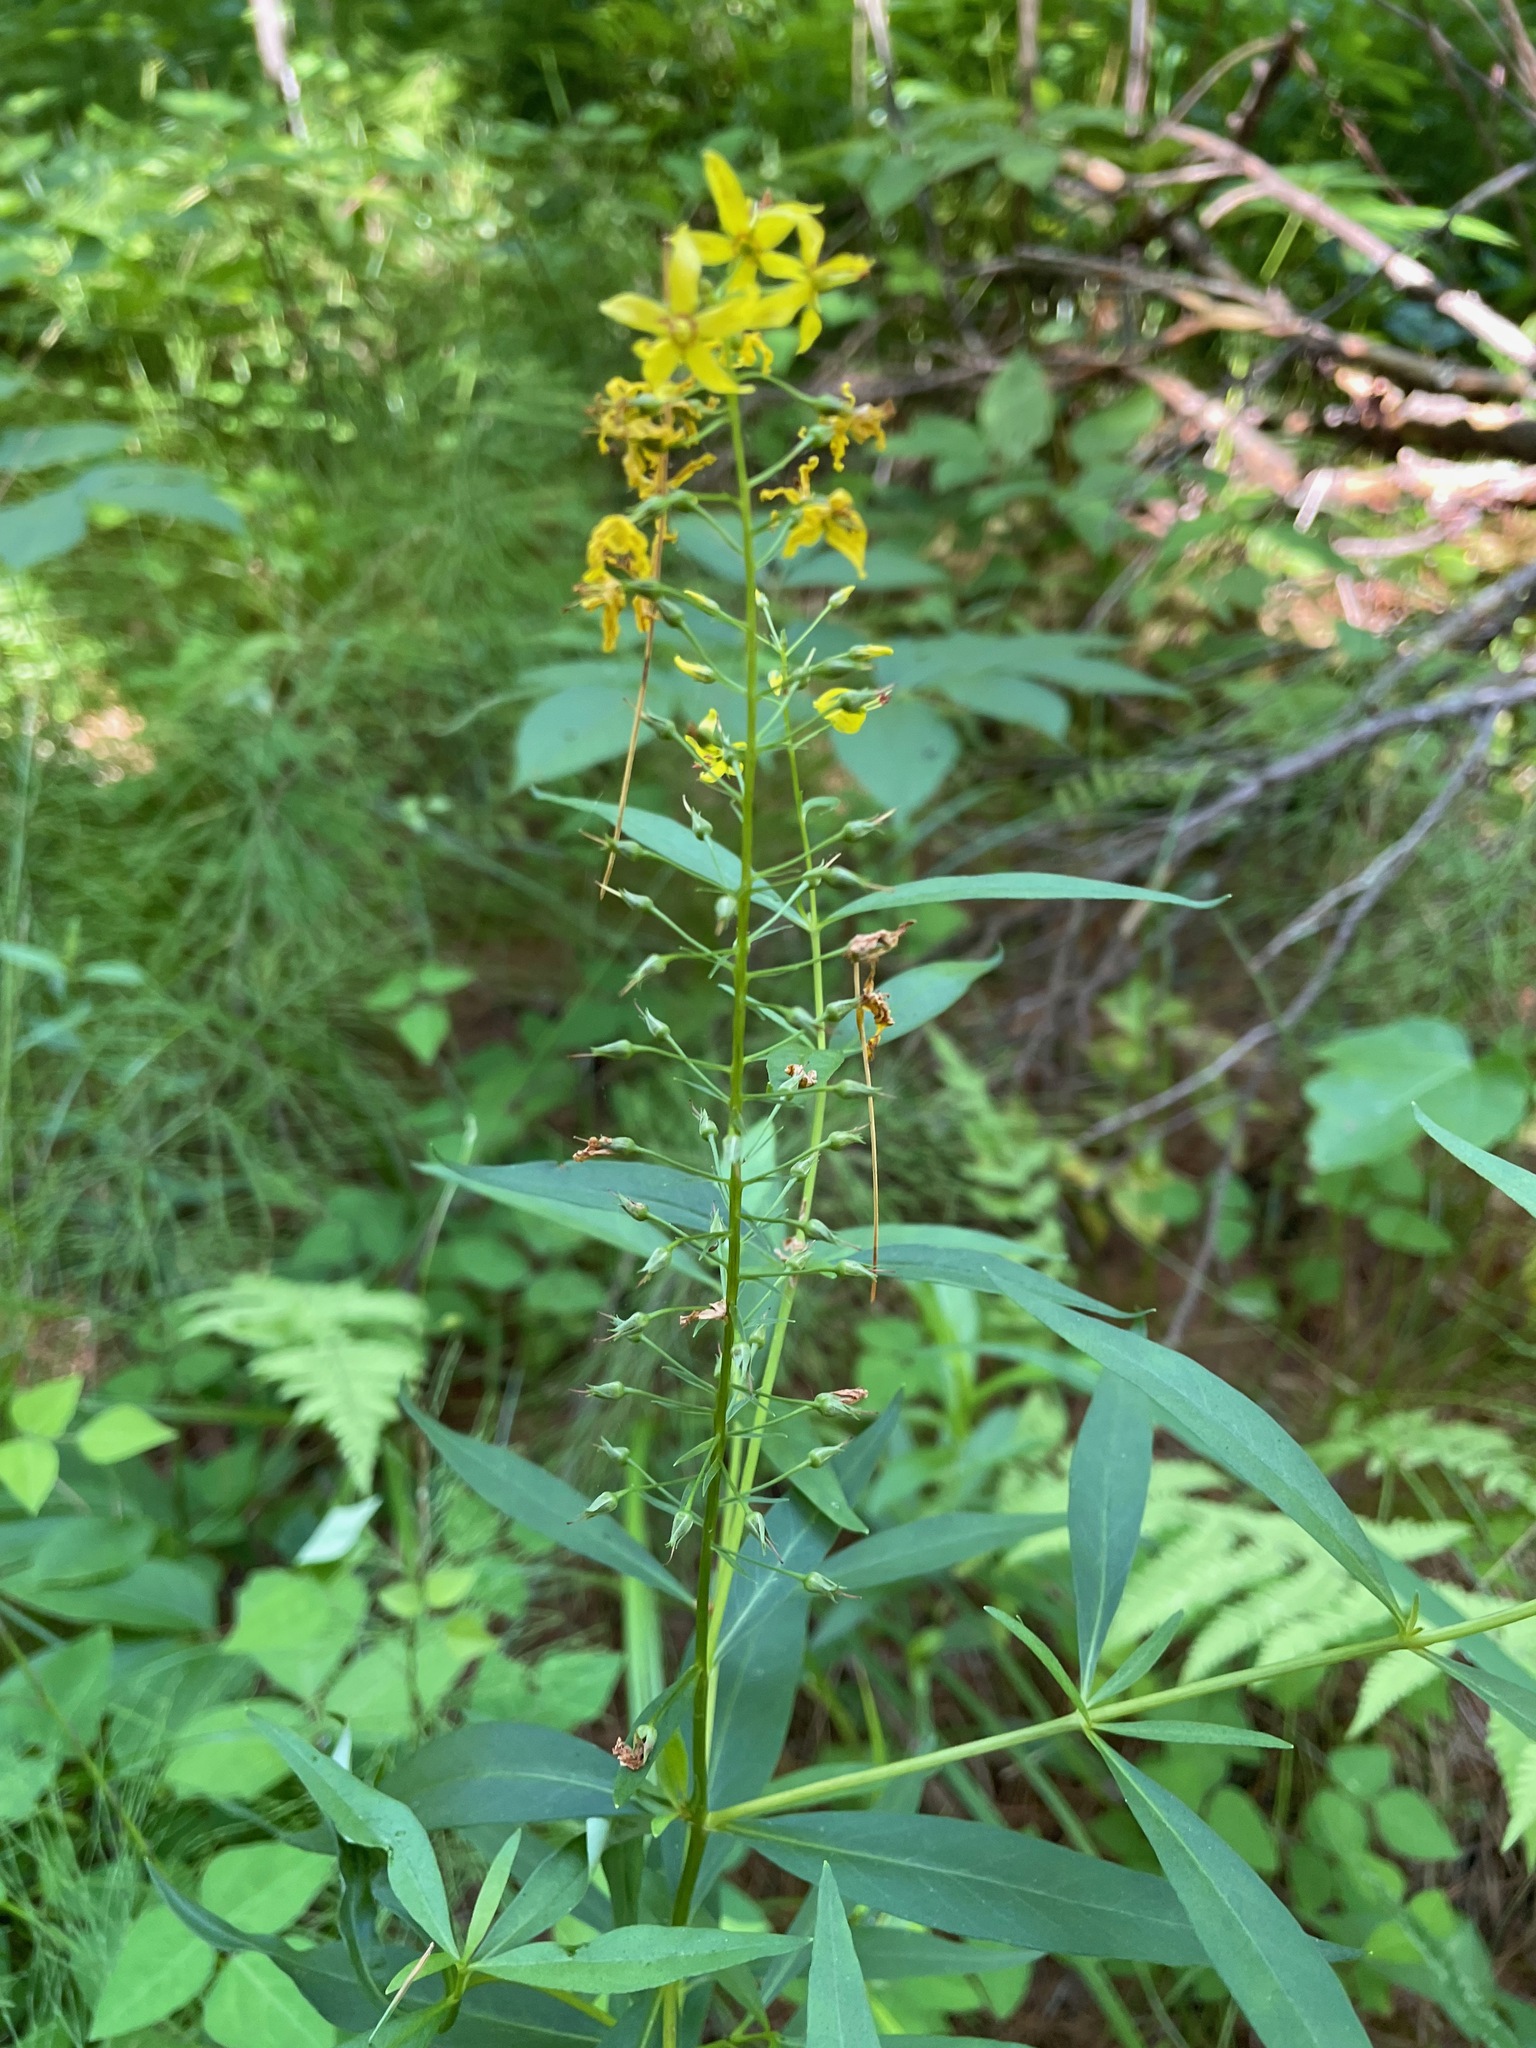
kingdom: Plantae
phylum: Tracheophyta
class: Magnoliopsida
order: Ericales
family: Primulaceae
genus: Lysimachia
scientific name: Lysimachia terrestris
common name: Lake loosestrife
